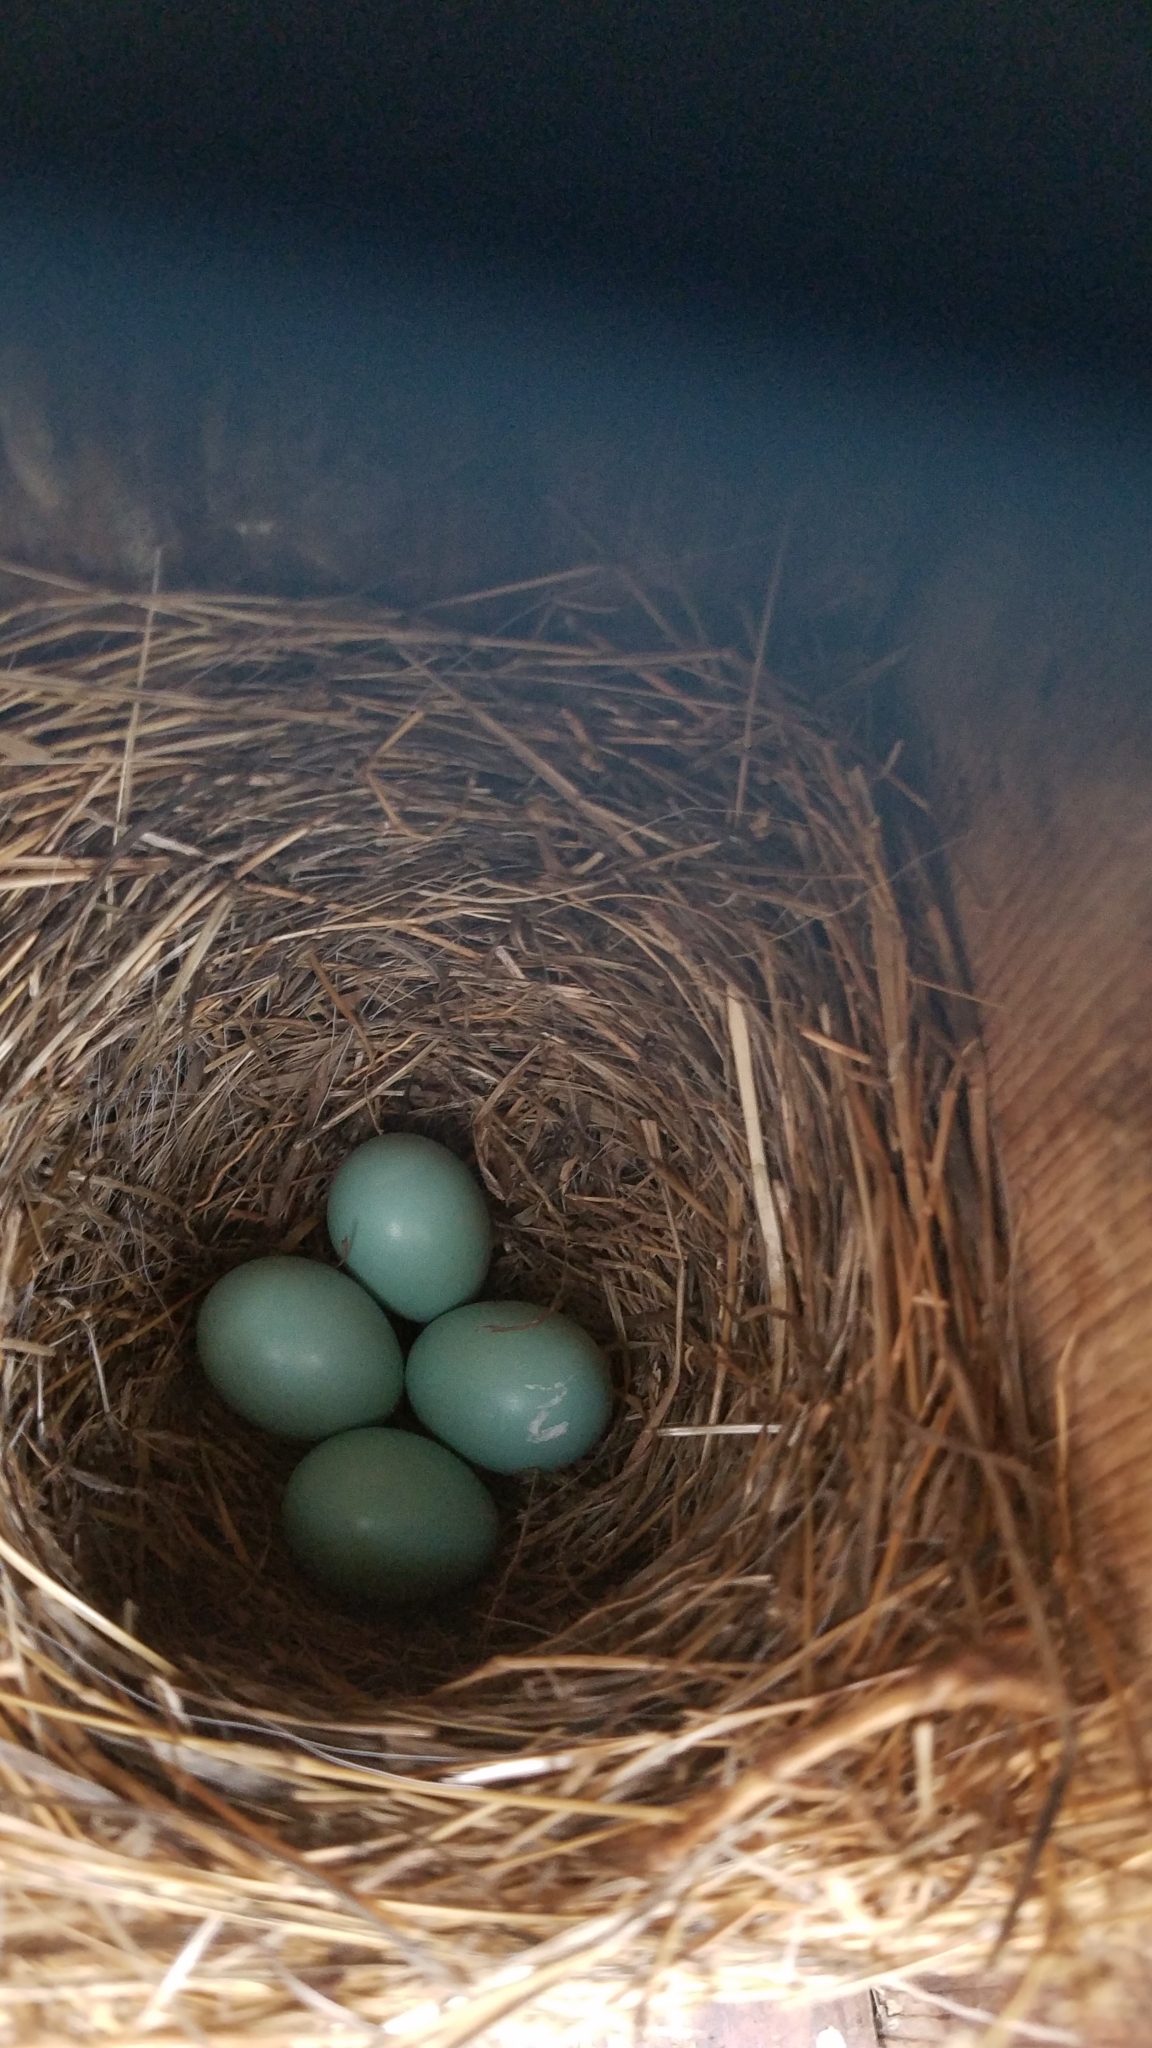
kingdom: Animalia
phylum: Chordata
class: Aves
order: Passeriformes
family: Turdidae
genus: Sialia
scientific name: Sialia sialis
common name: Eastern bluebird
